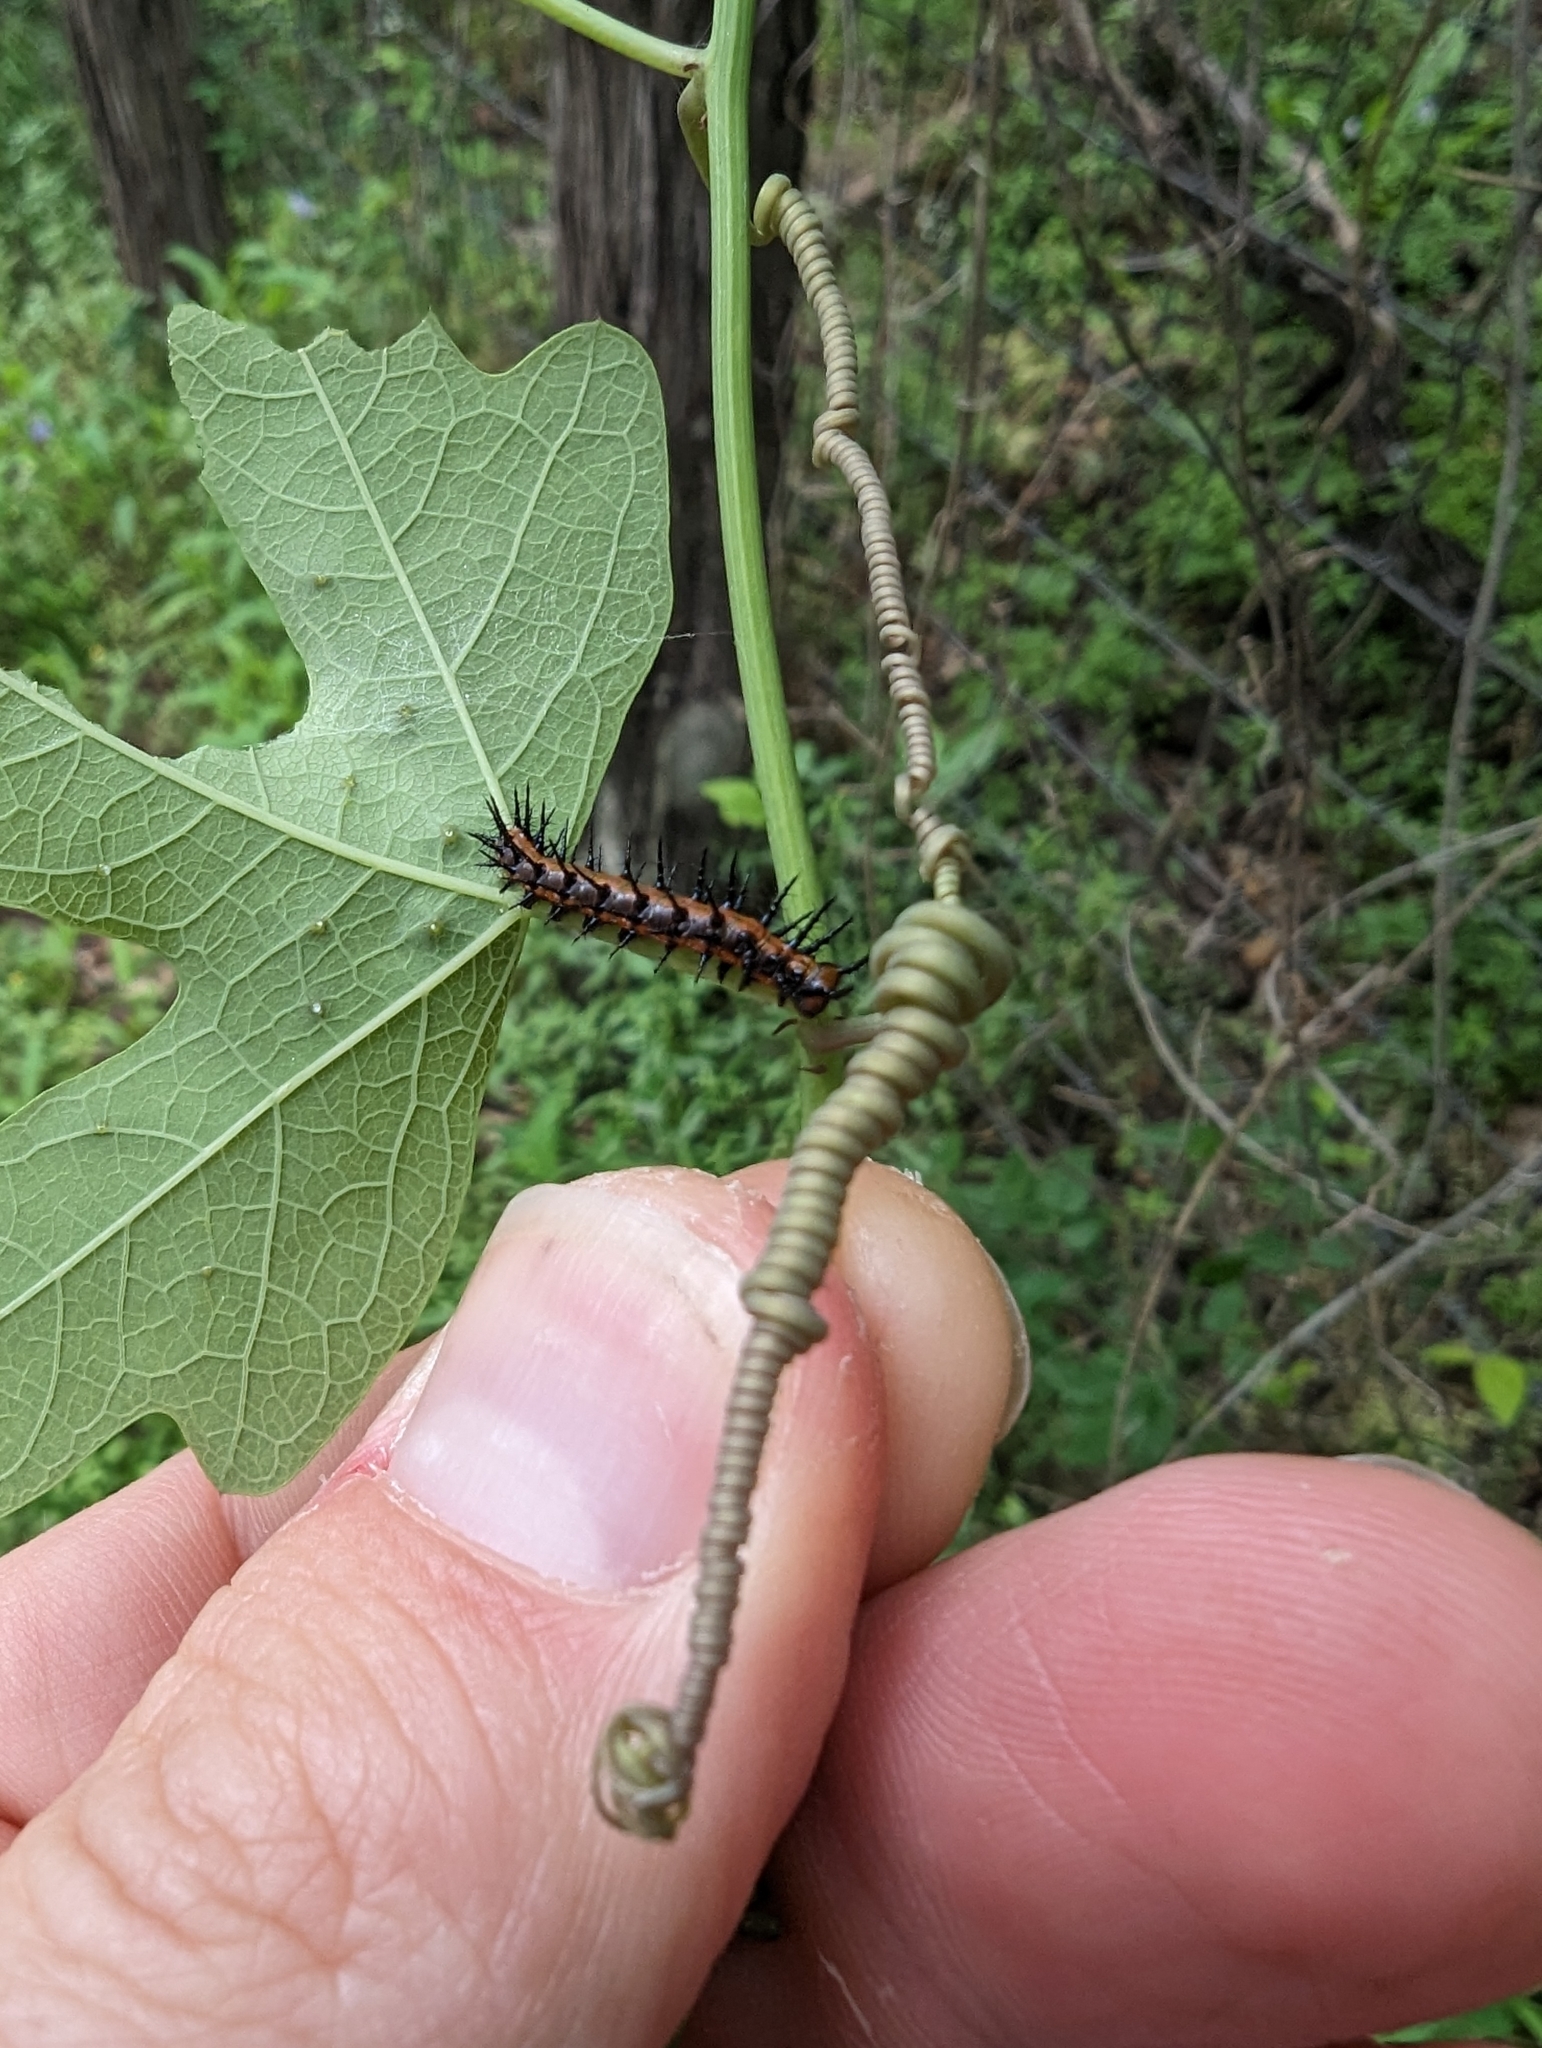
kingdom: Animalia
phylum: Arthropoda
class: Insecta
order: Lepidoptera
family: Nymphalidae
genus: Dione
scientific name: Dione vanillae
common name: Gulf fritillary
